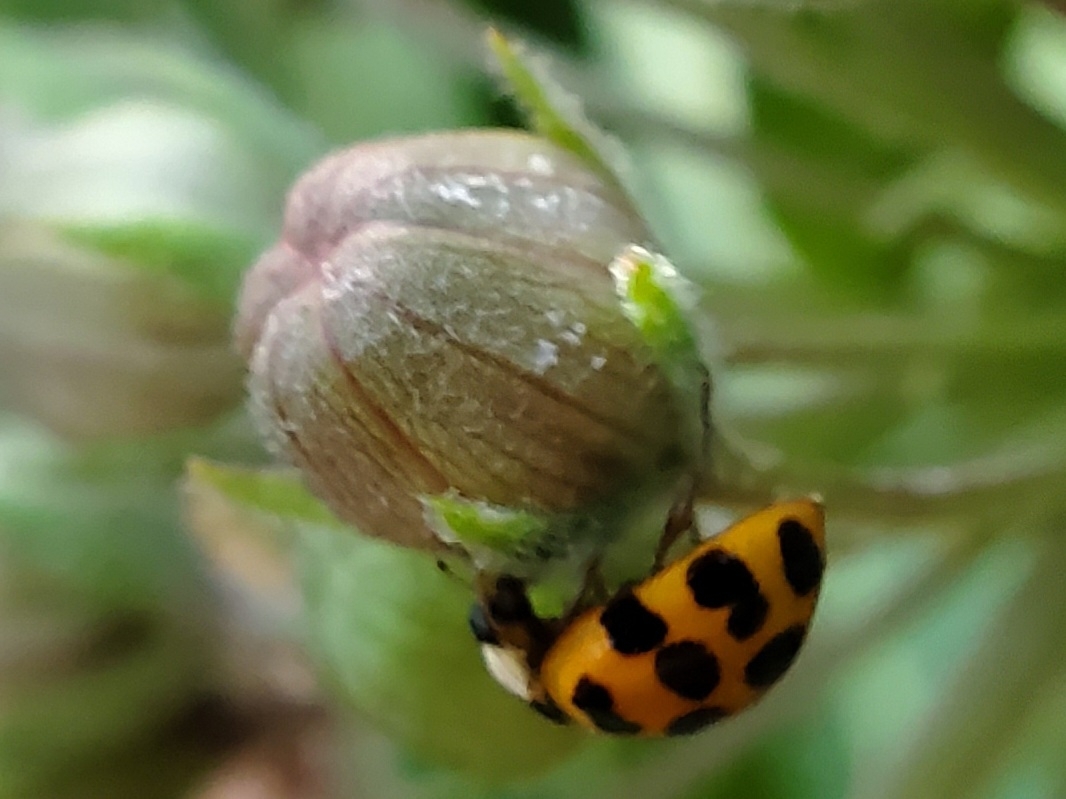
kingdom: Animalia
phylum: Arthropoda
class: Insecta
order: Coleoptera
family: Coccinellidae
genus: Harmonia
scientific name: Harmonia axyridis
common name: Harlequin ladybird
